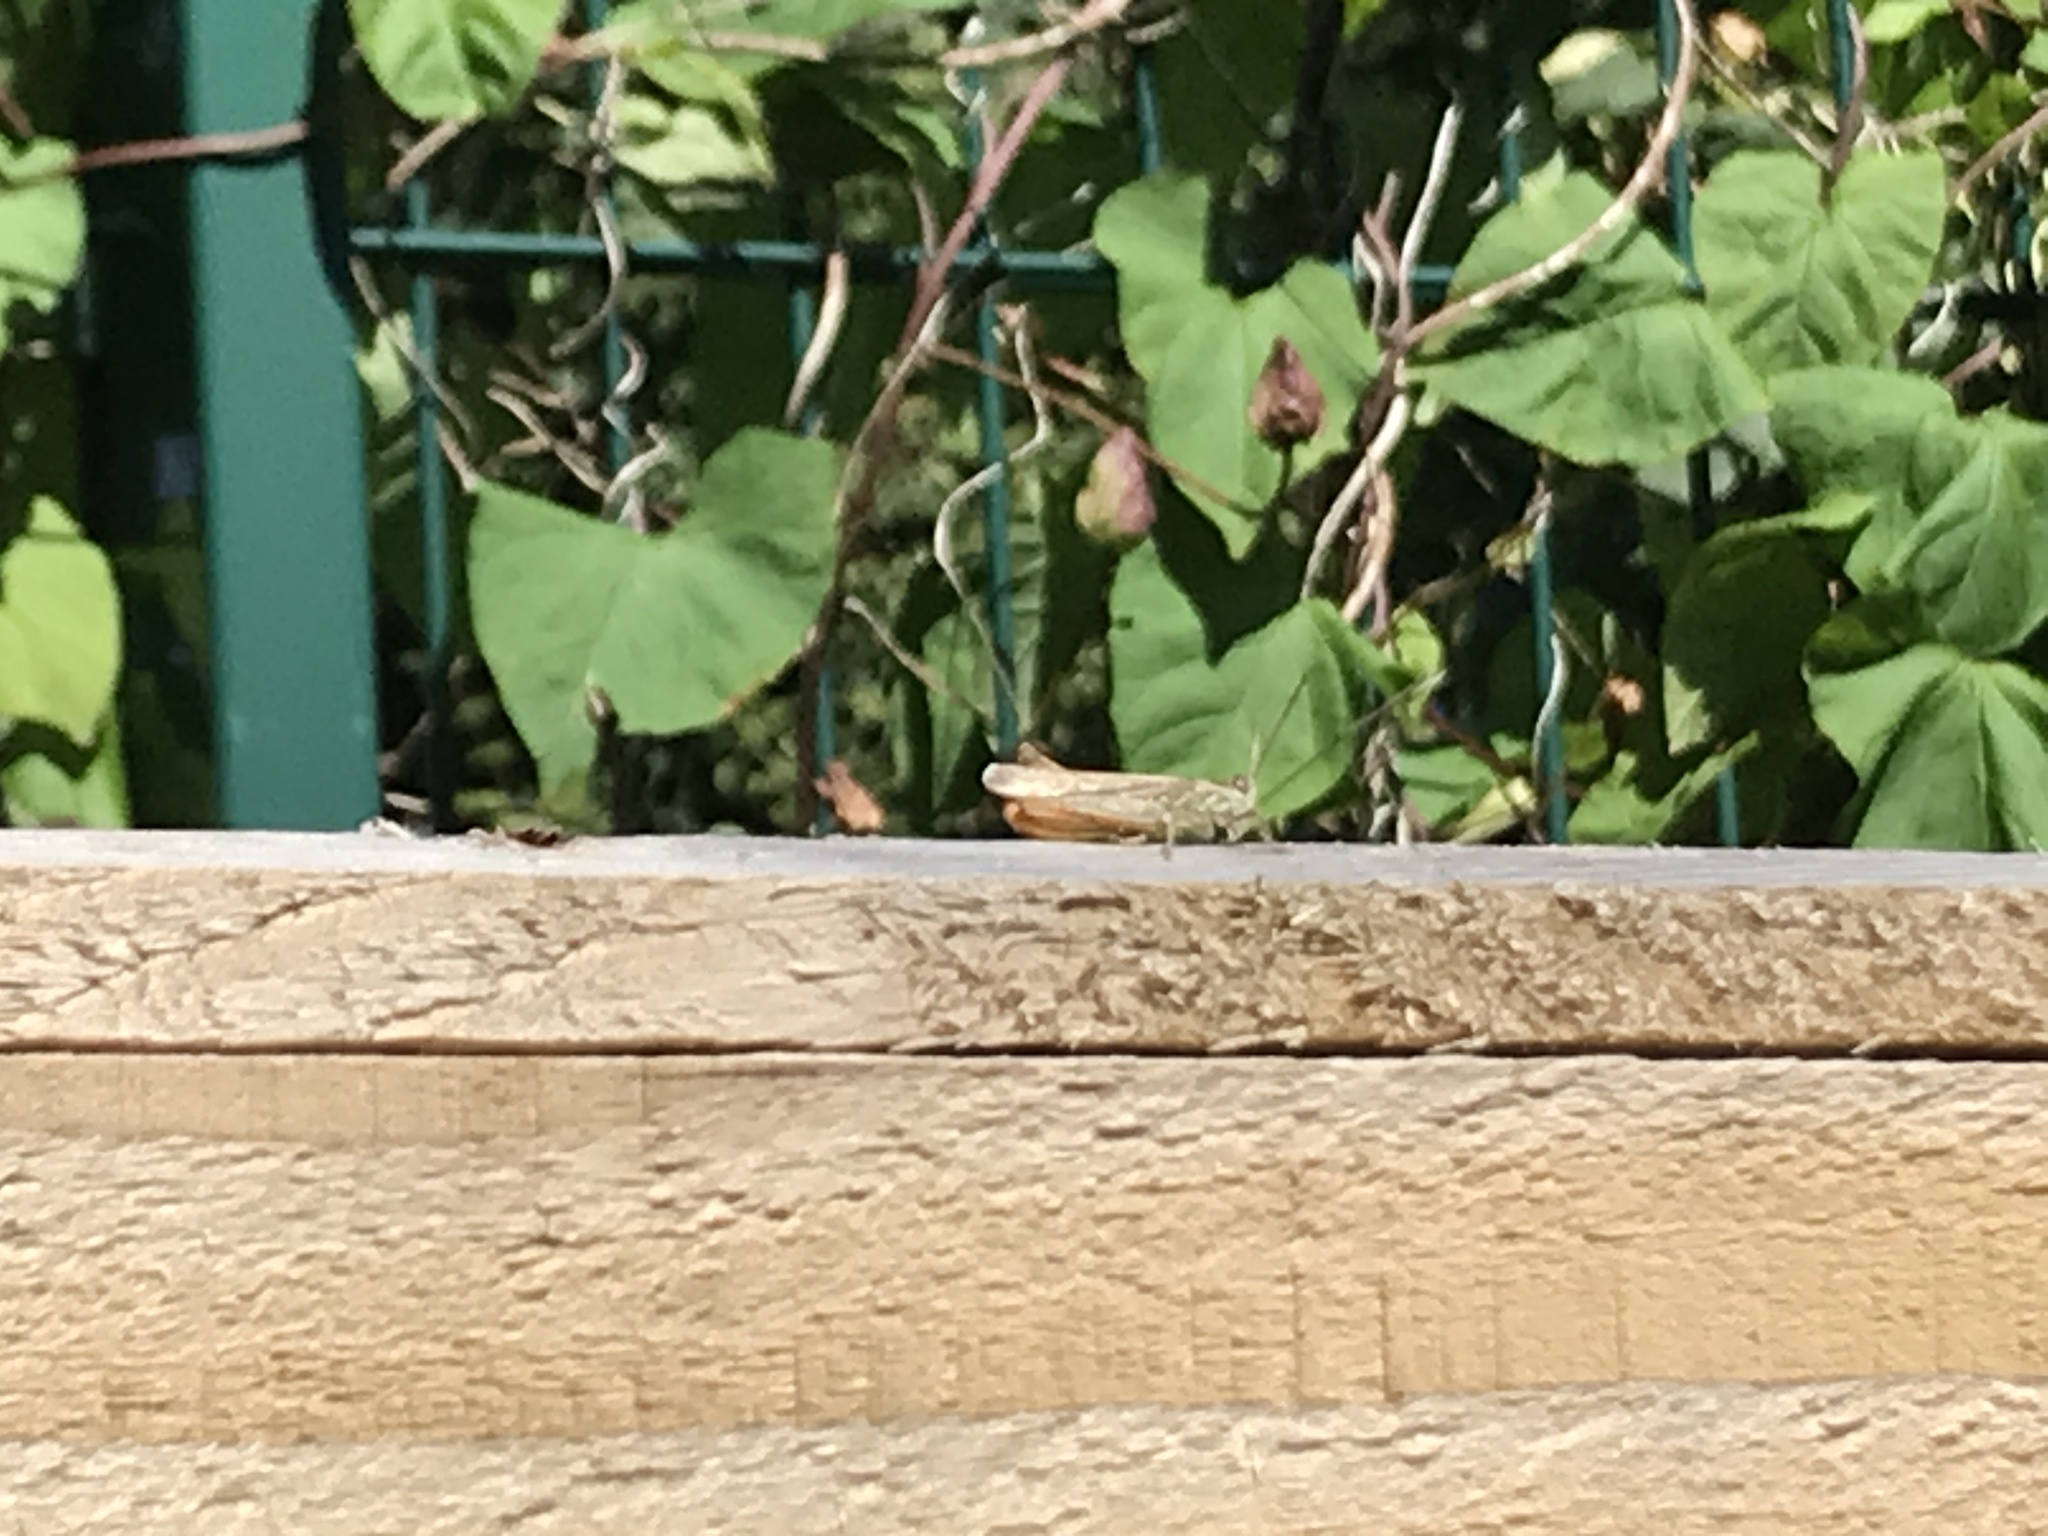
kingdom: Animalia
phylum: Arthropoda
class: Insecta
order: Orthoptera
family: Acrididae
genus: Chorthippus
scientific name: Chorthippus brunneus
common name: Field grasshopper
